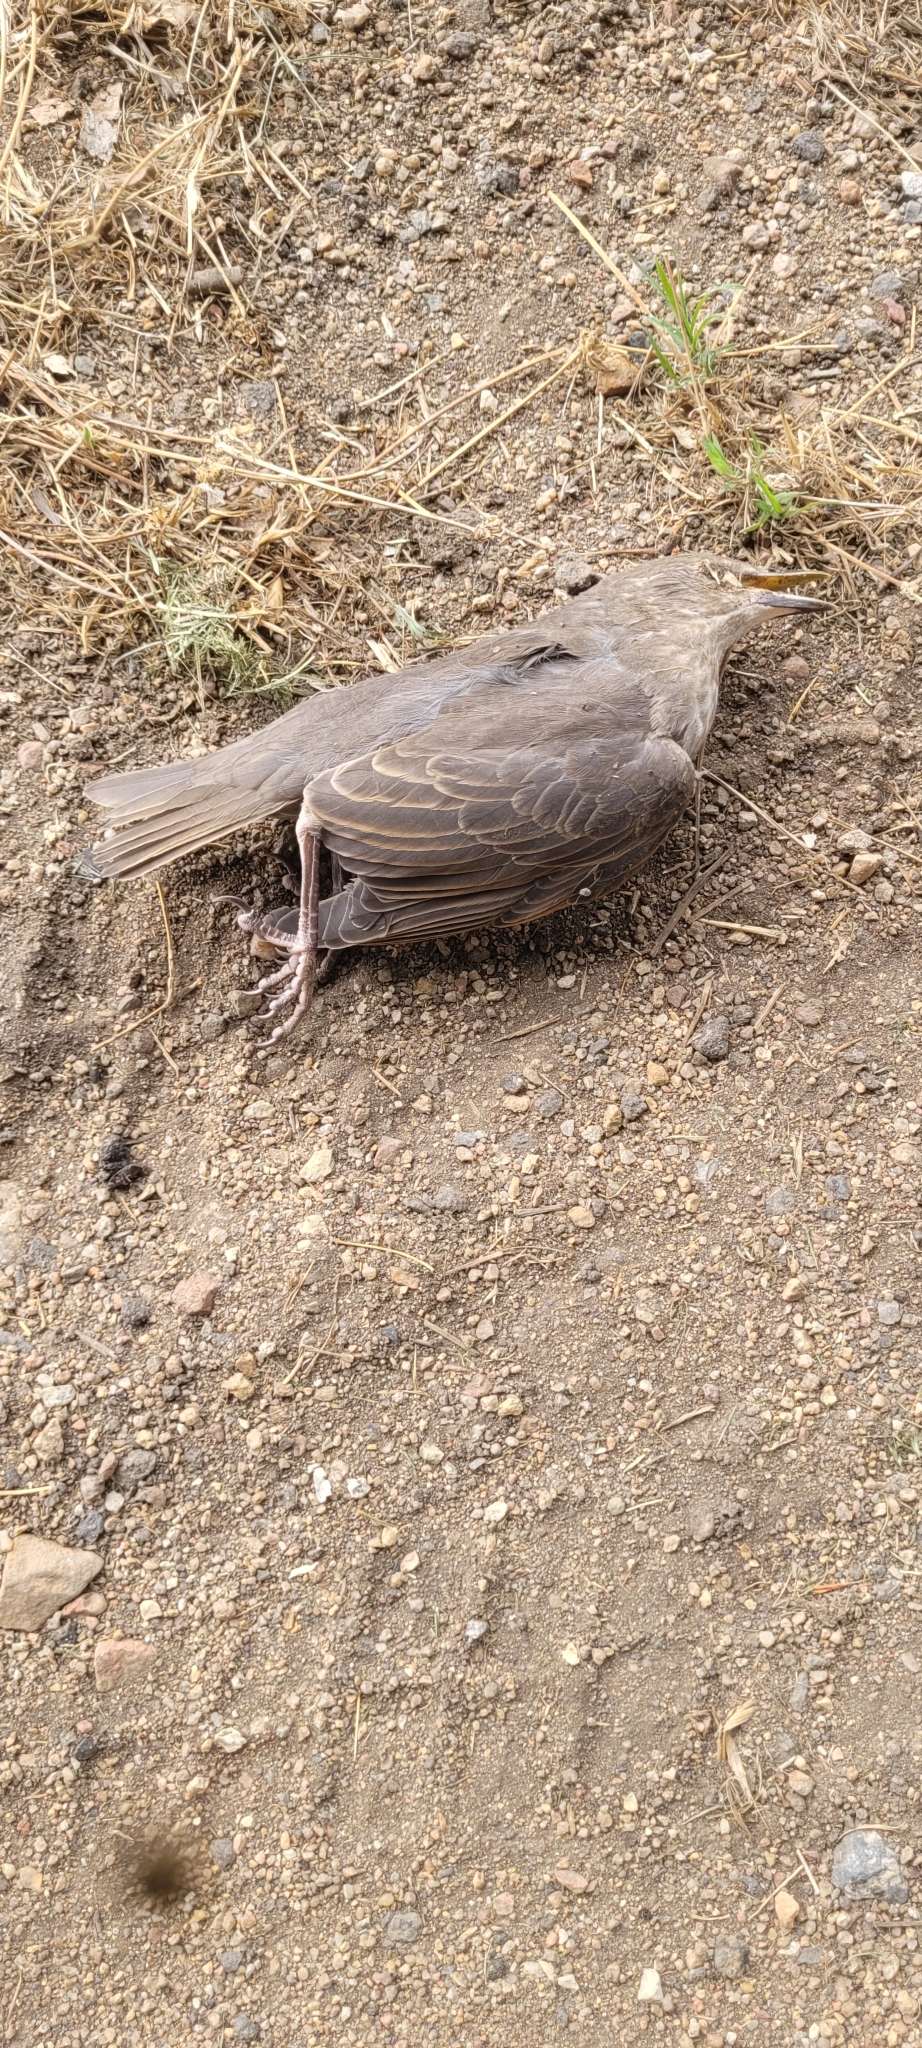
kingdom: Animalia
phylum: Chordata
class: Aves
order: Passeriformes
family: Sturnidae
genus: Sturnus
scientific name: Sturnus vulgaris
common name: Common starling
